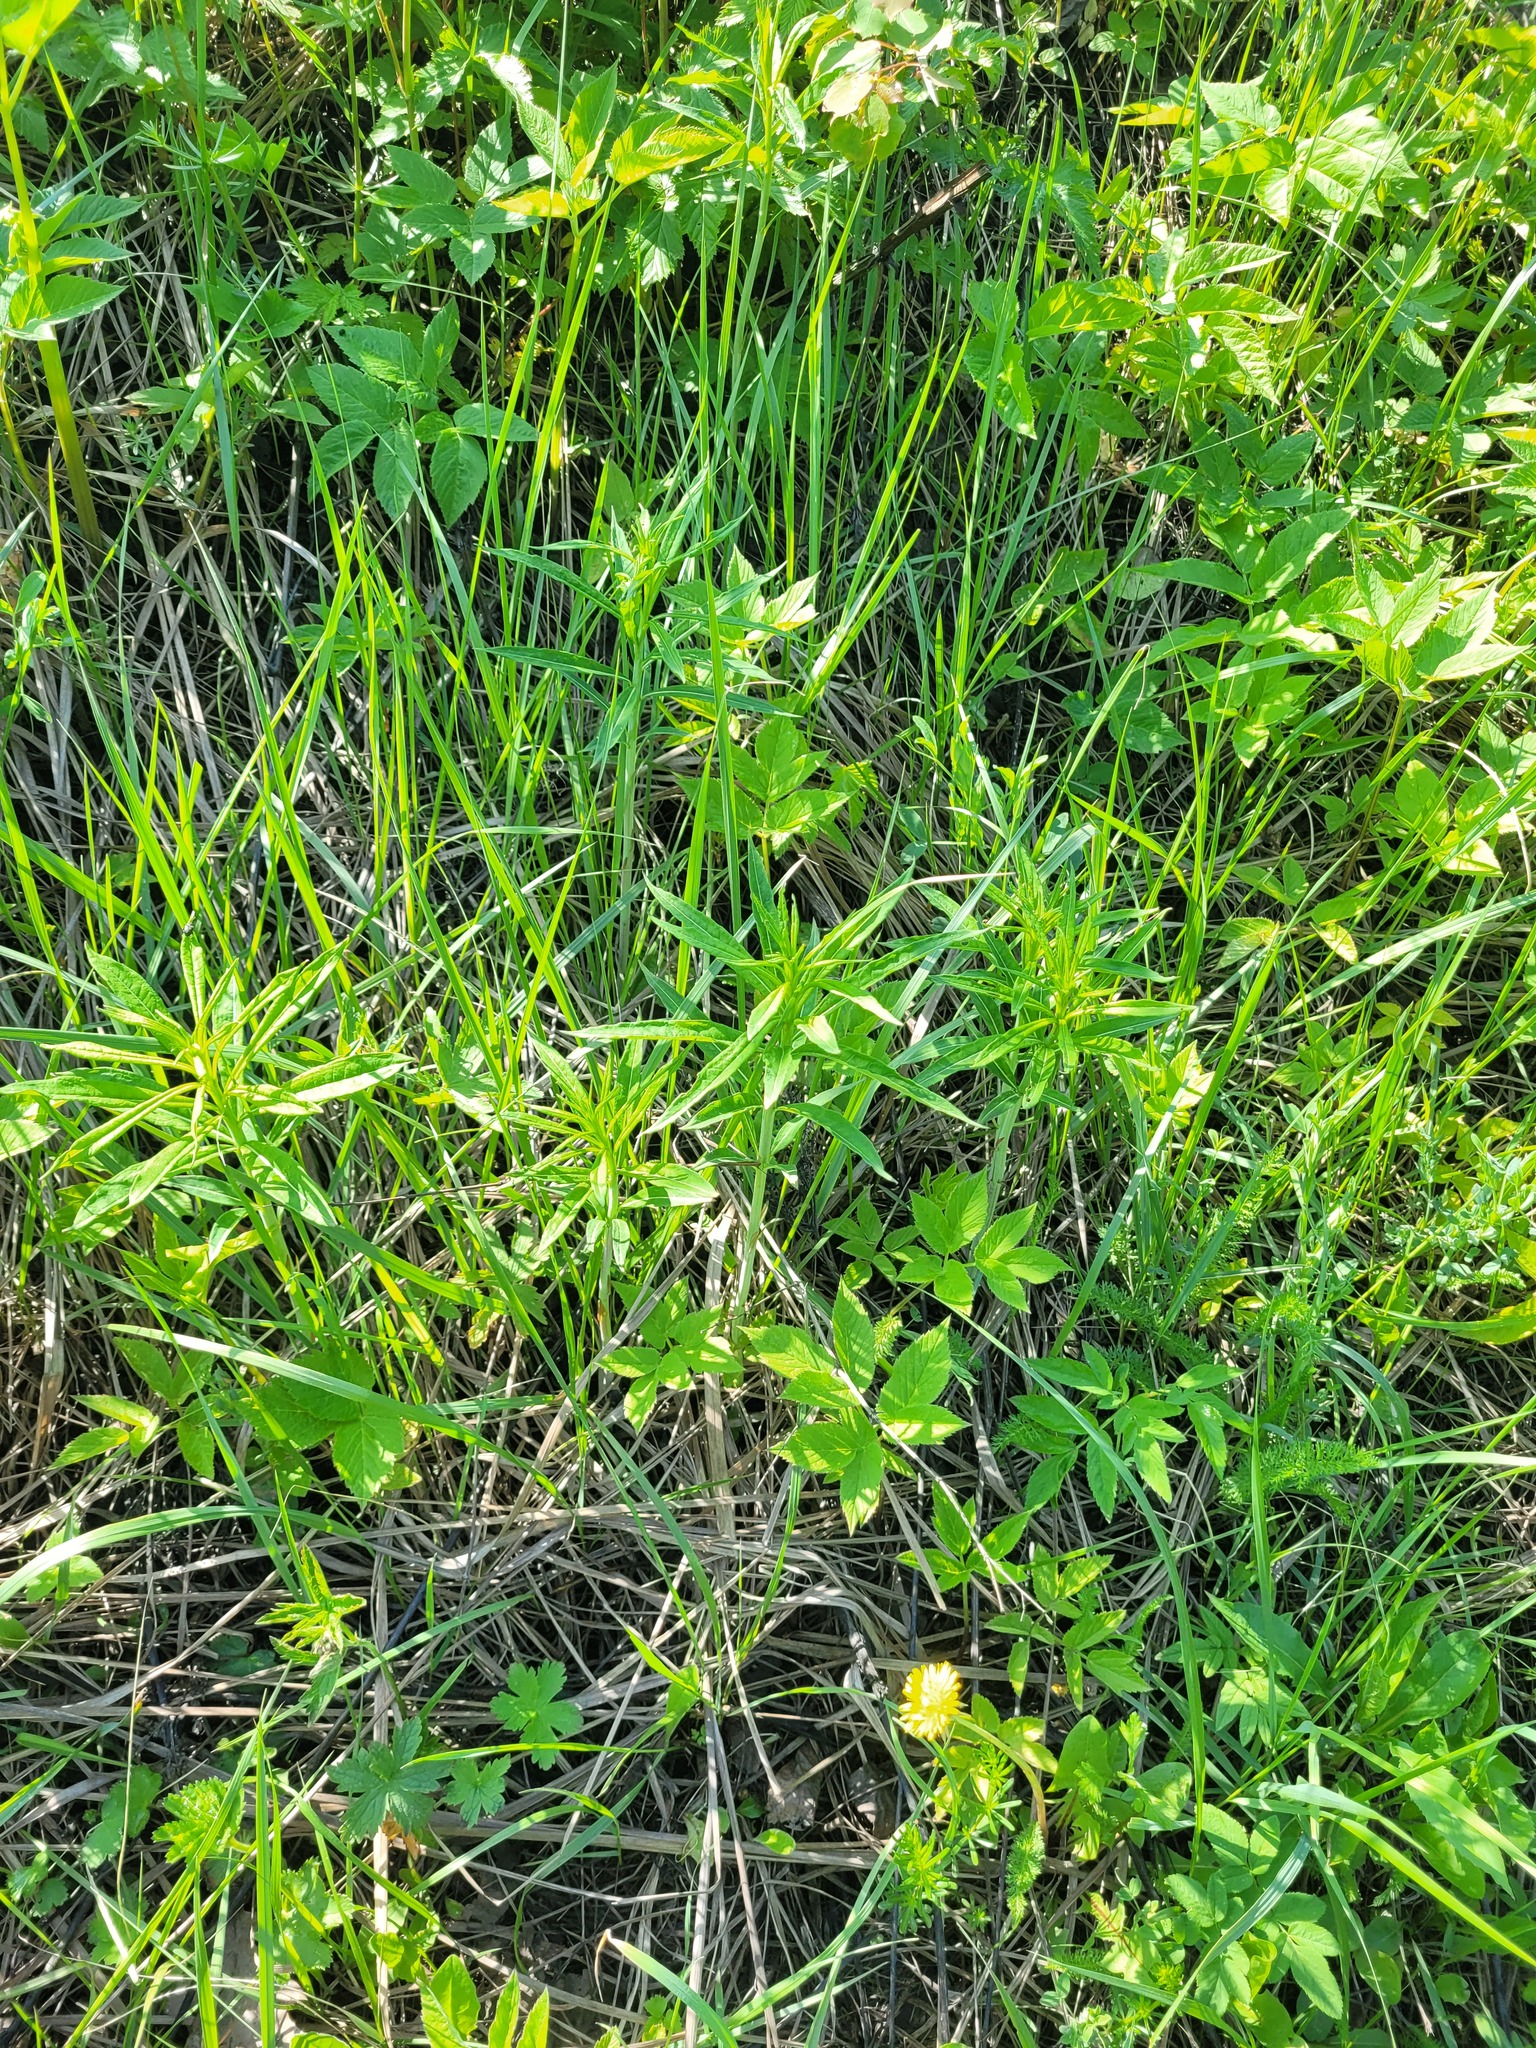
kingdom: Plantae
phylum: Tracheophyta
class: Magnoliopsida
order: Myrtales
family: Onagraceae
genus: Chamaenerion
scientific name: Chamaenerion angustifolium
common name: Fireweed
